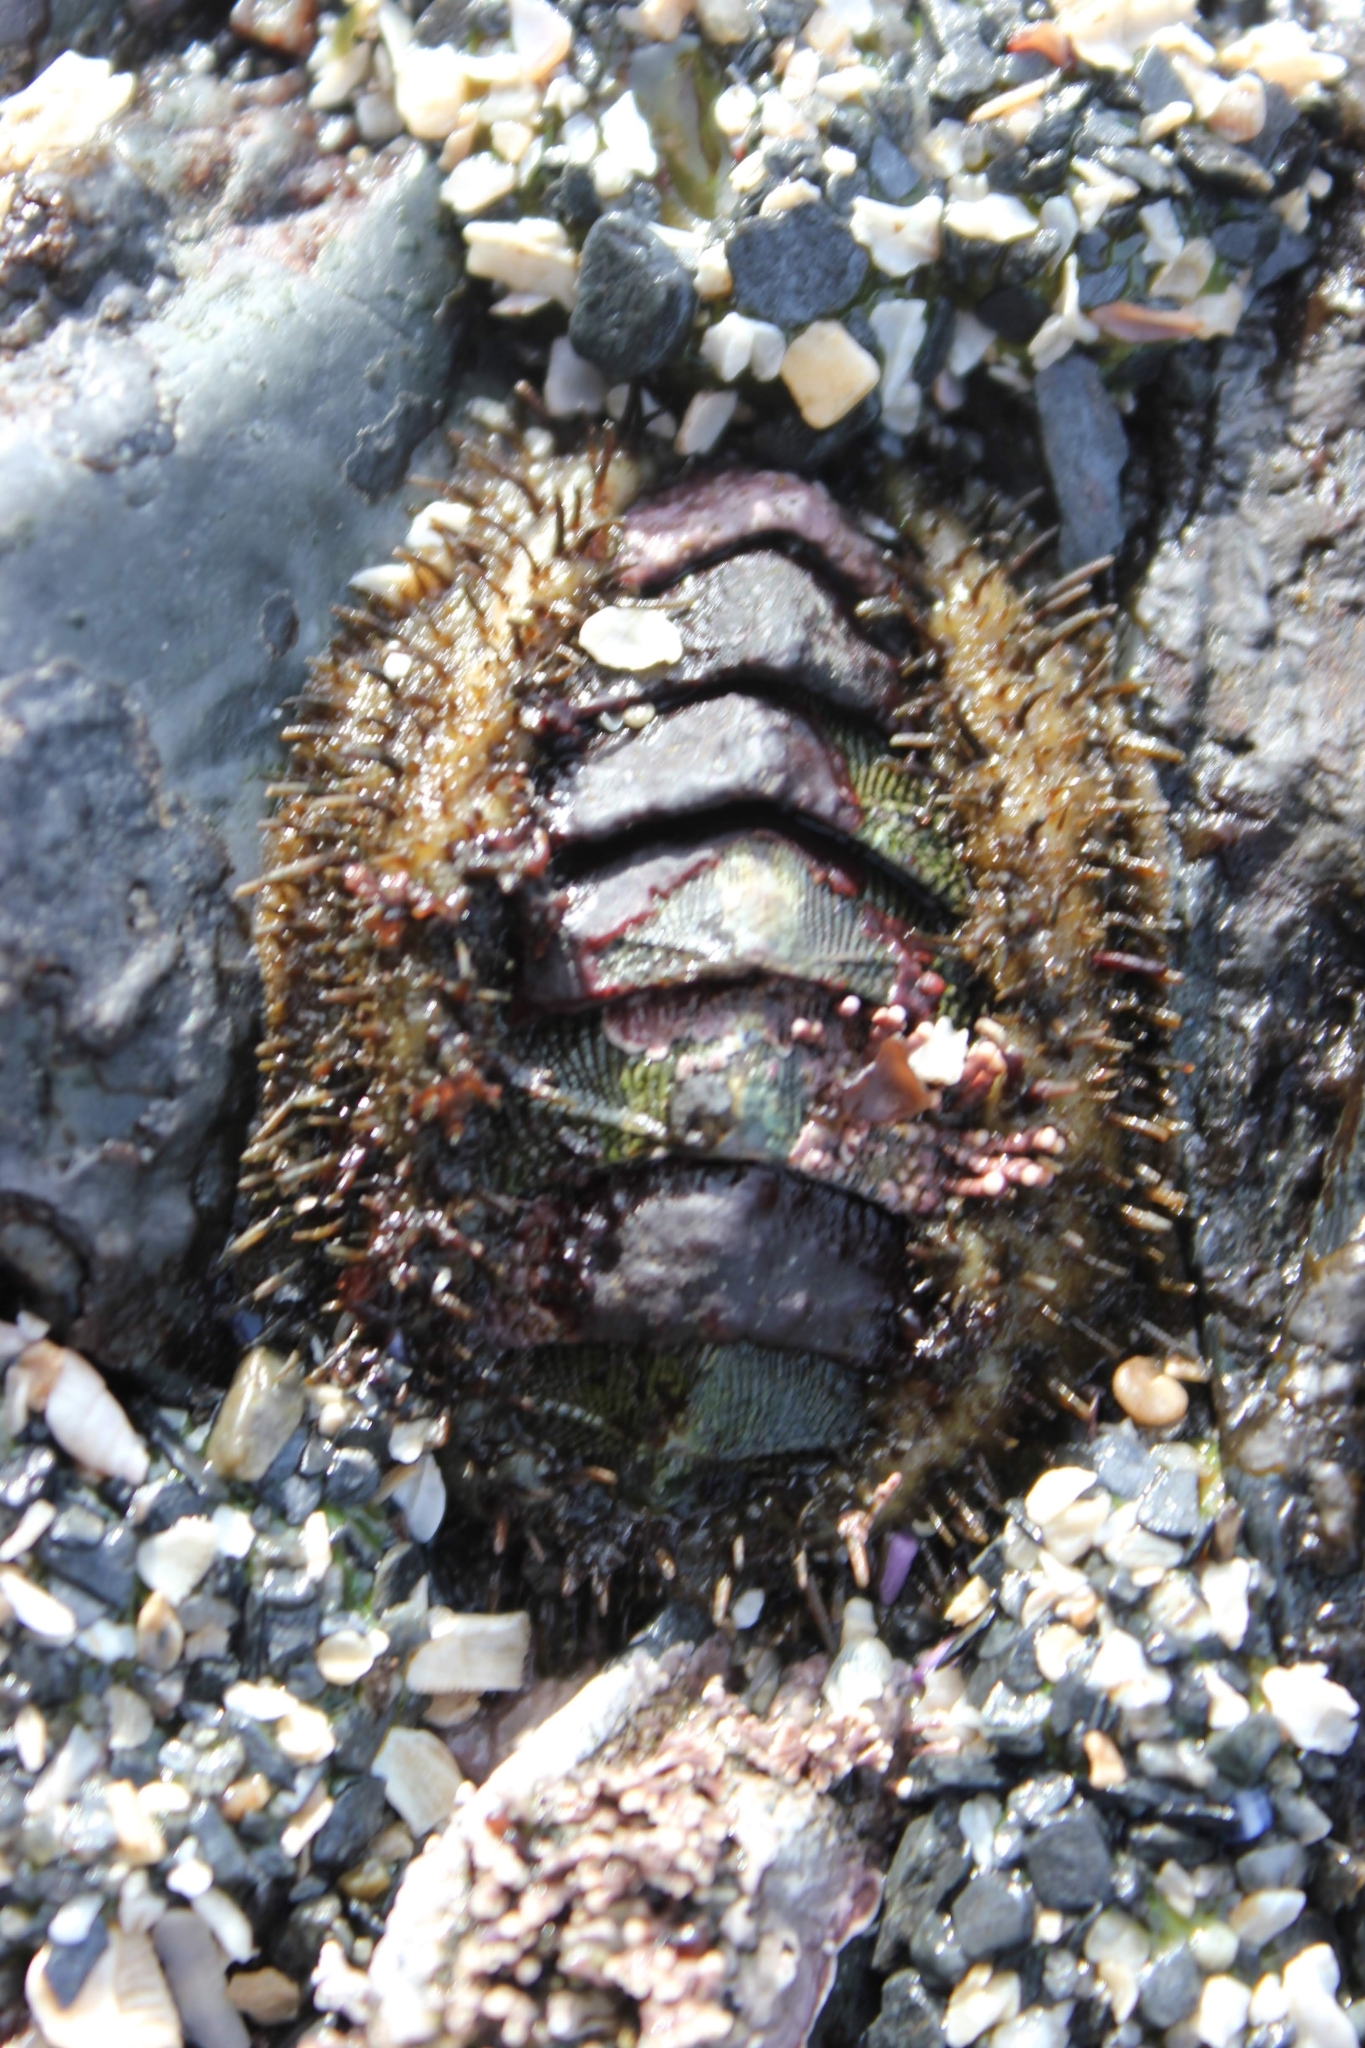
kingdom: Animalia
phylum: Mollusca
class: Polyplacophora
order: Chitonida
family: Mopaliidae
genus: Mopalia
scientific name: Mopalia muscosa
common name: Mossy chiton
